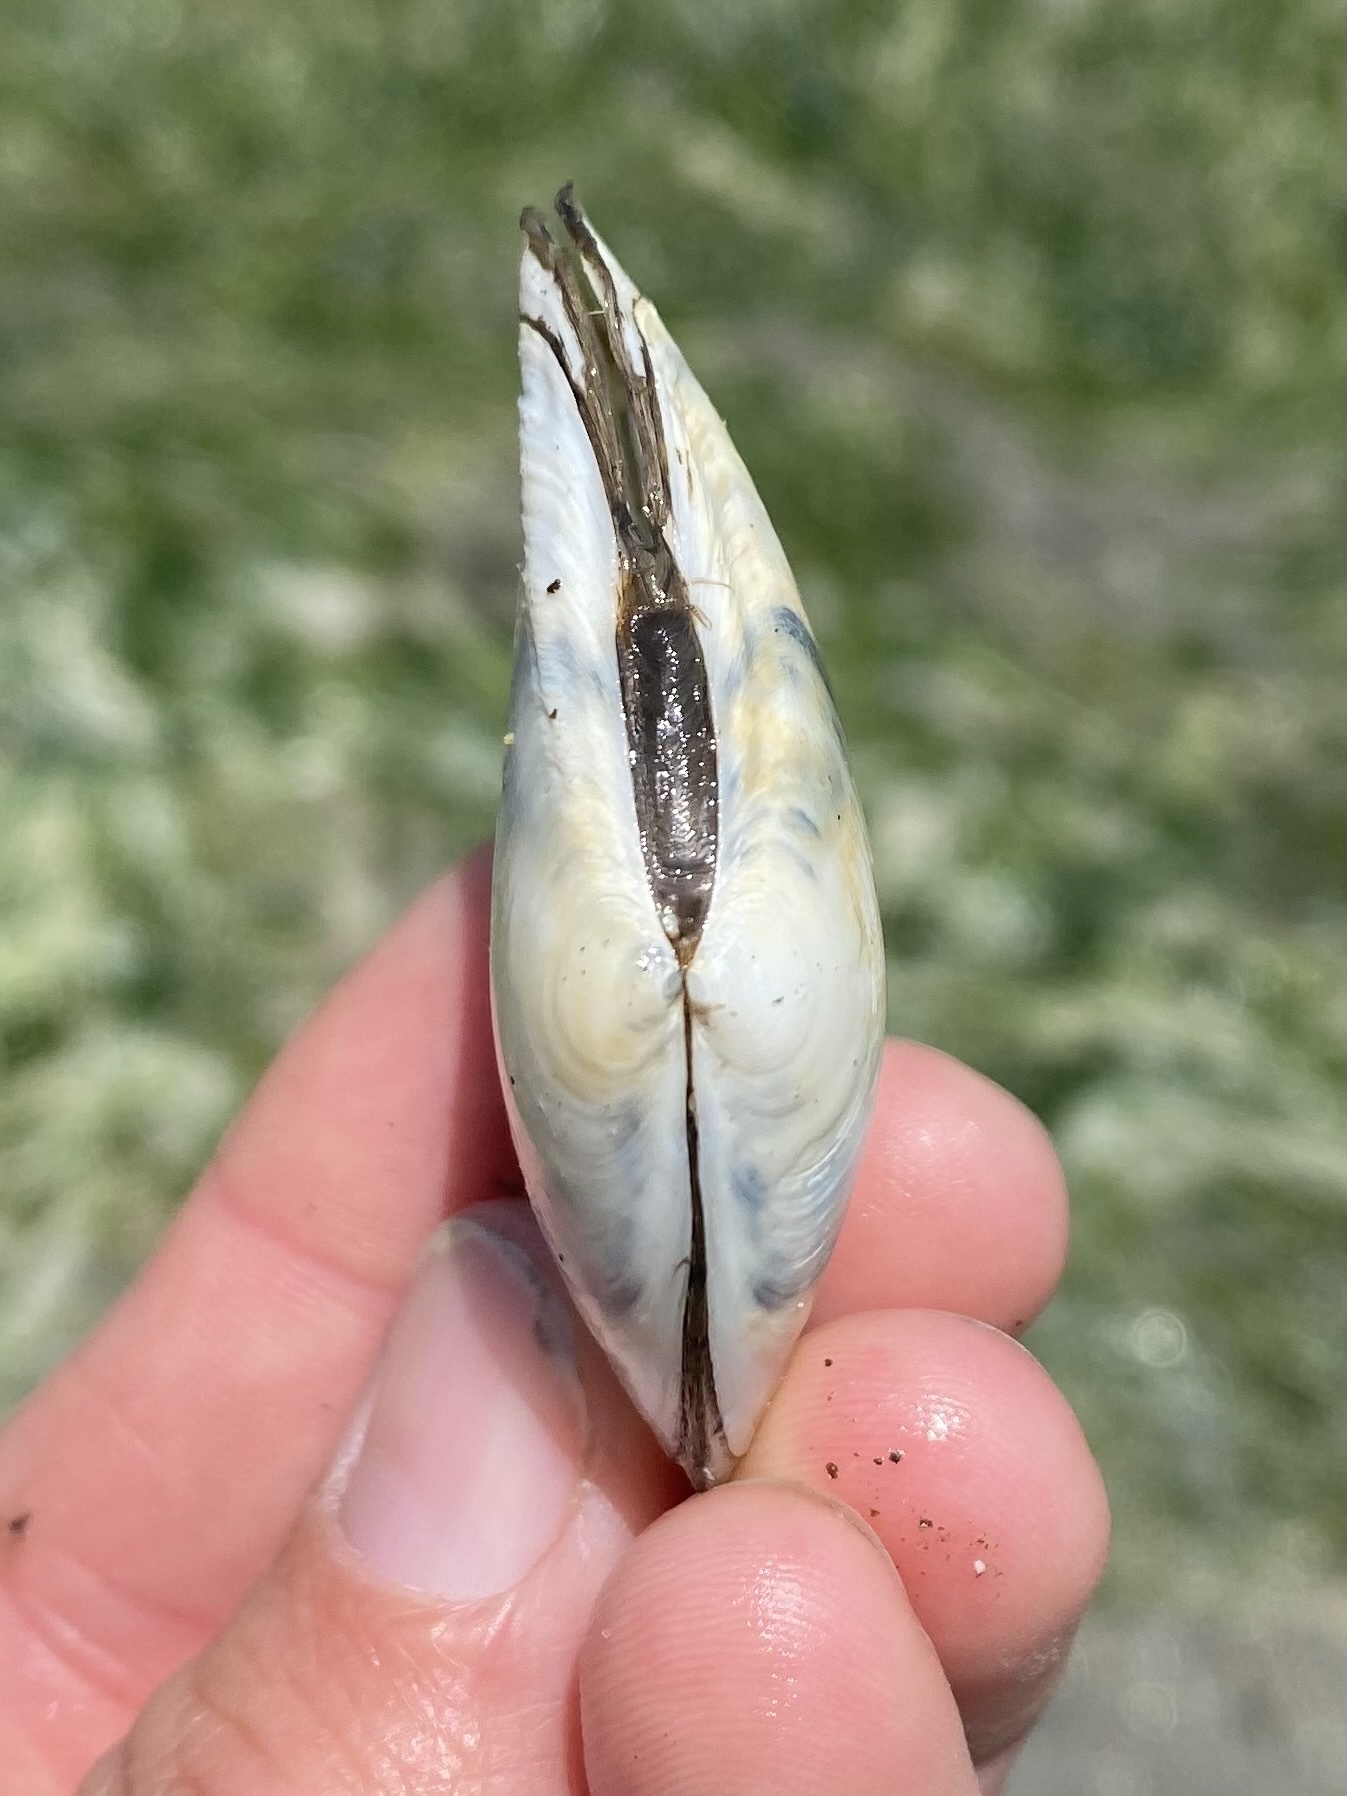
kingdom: Animalia
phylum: Mollusca
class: Bivalvia
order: Cardiida
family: Tellinidae
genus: Macoma
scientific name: Macoma nasuta
